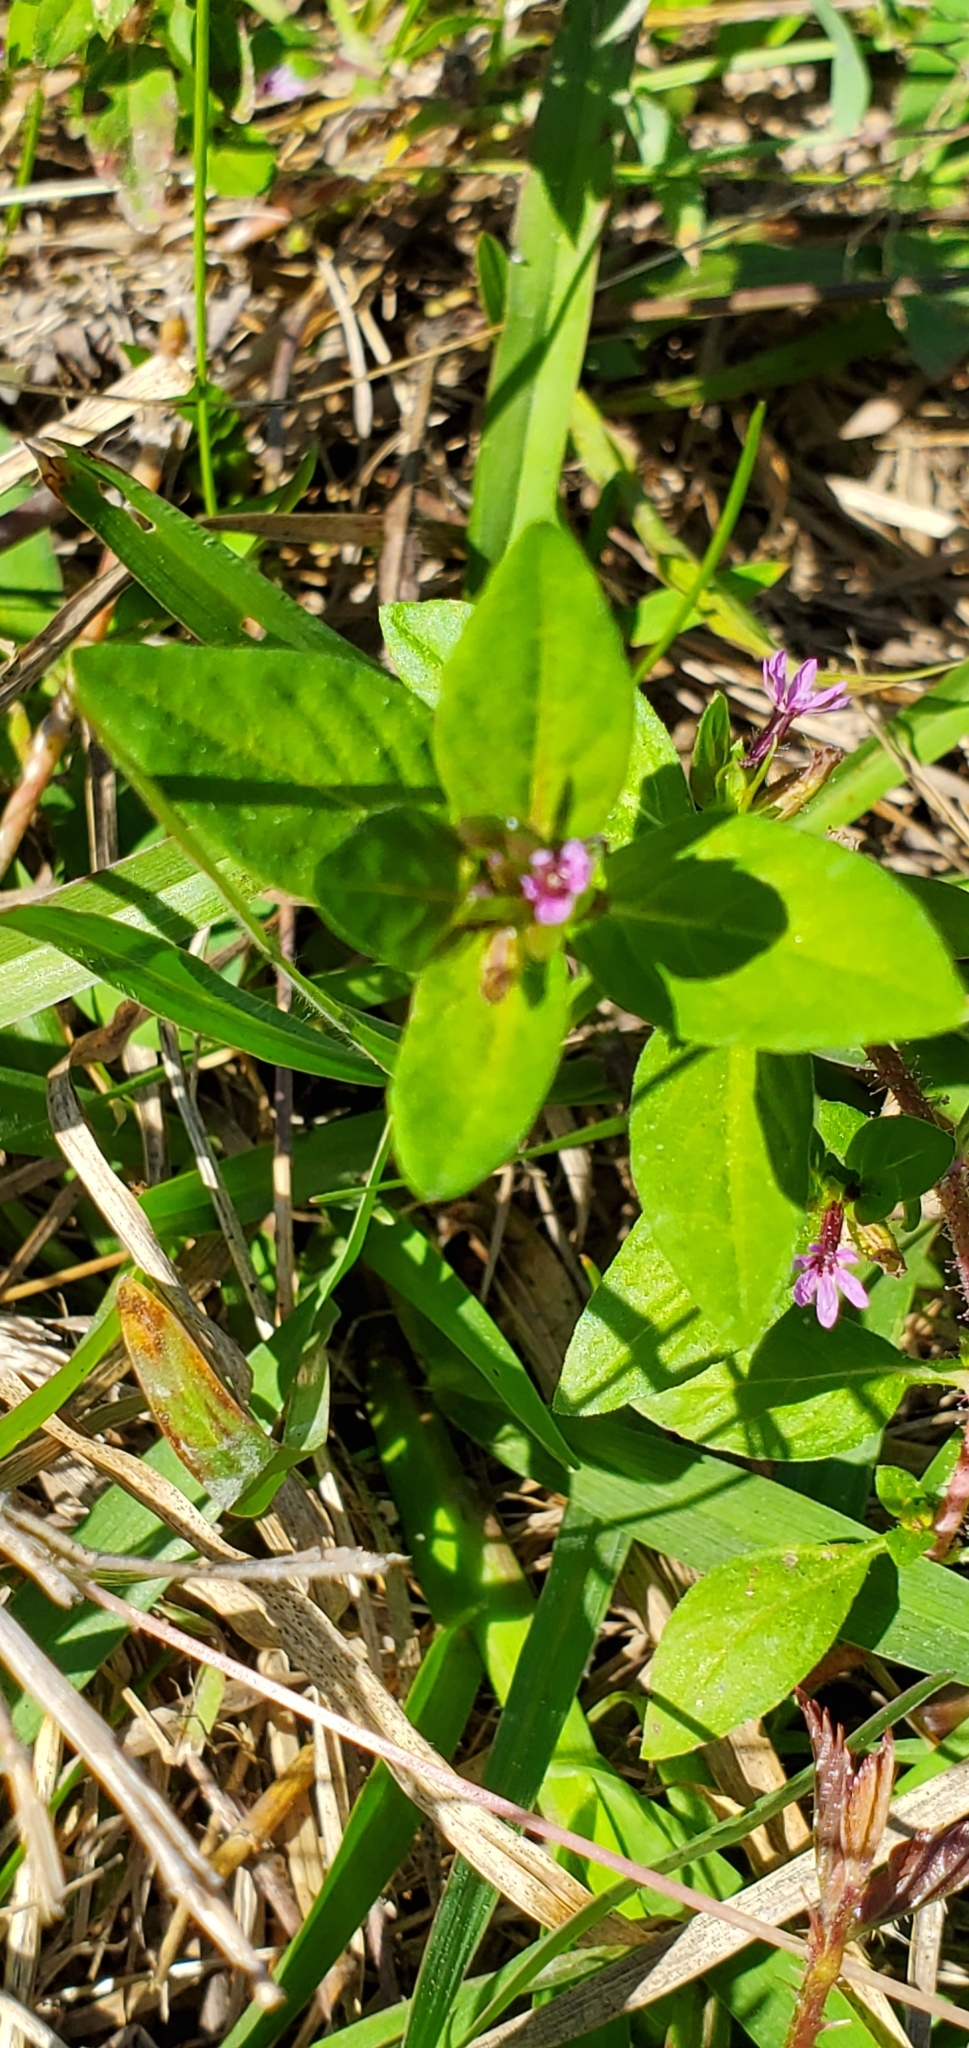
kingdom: Plantae
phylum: Tracheophyta
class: Magnoliopsida
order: Myrtales
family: Lythraceae
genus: Cuphea
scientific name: Cuphea carthagenensis
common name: Colombian waxweed
